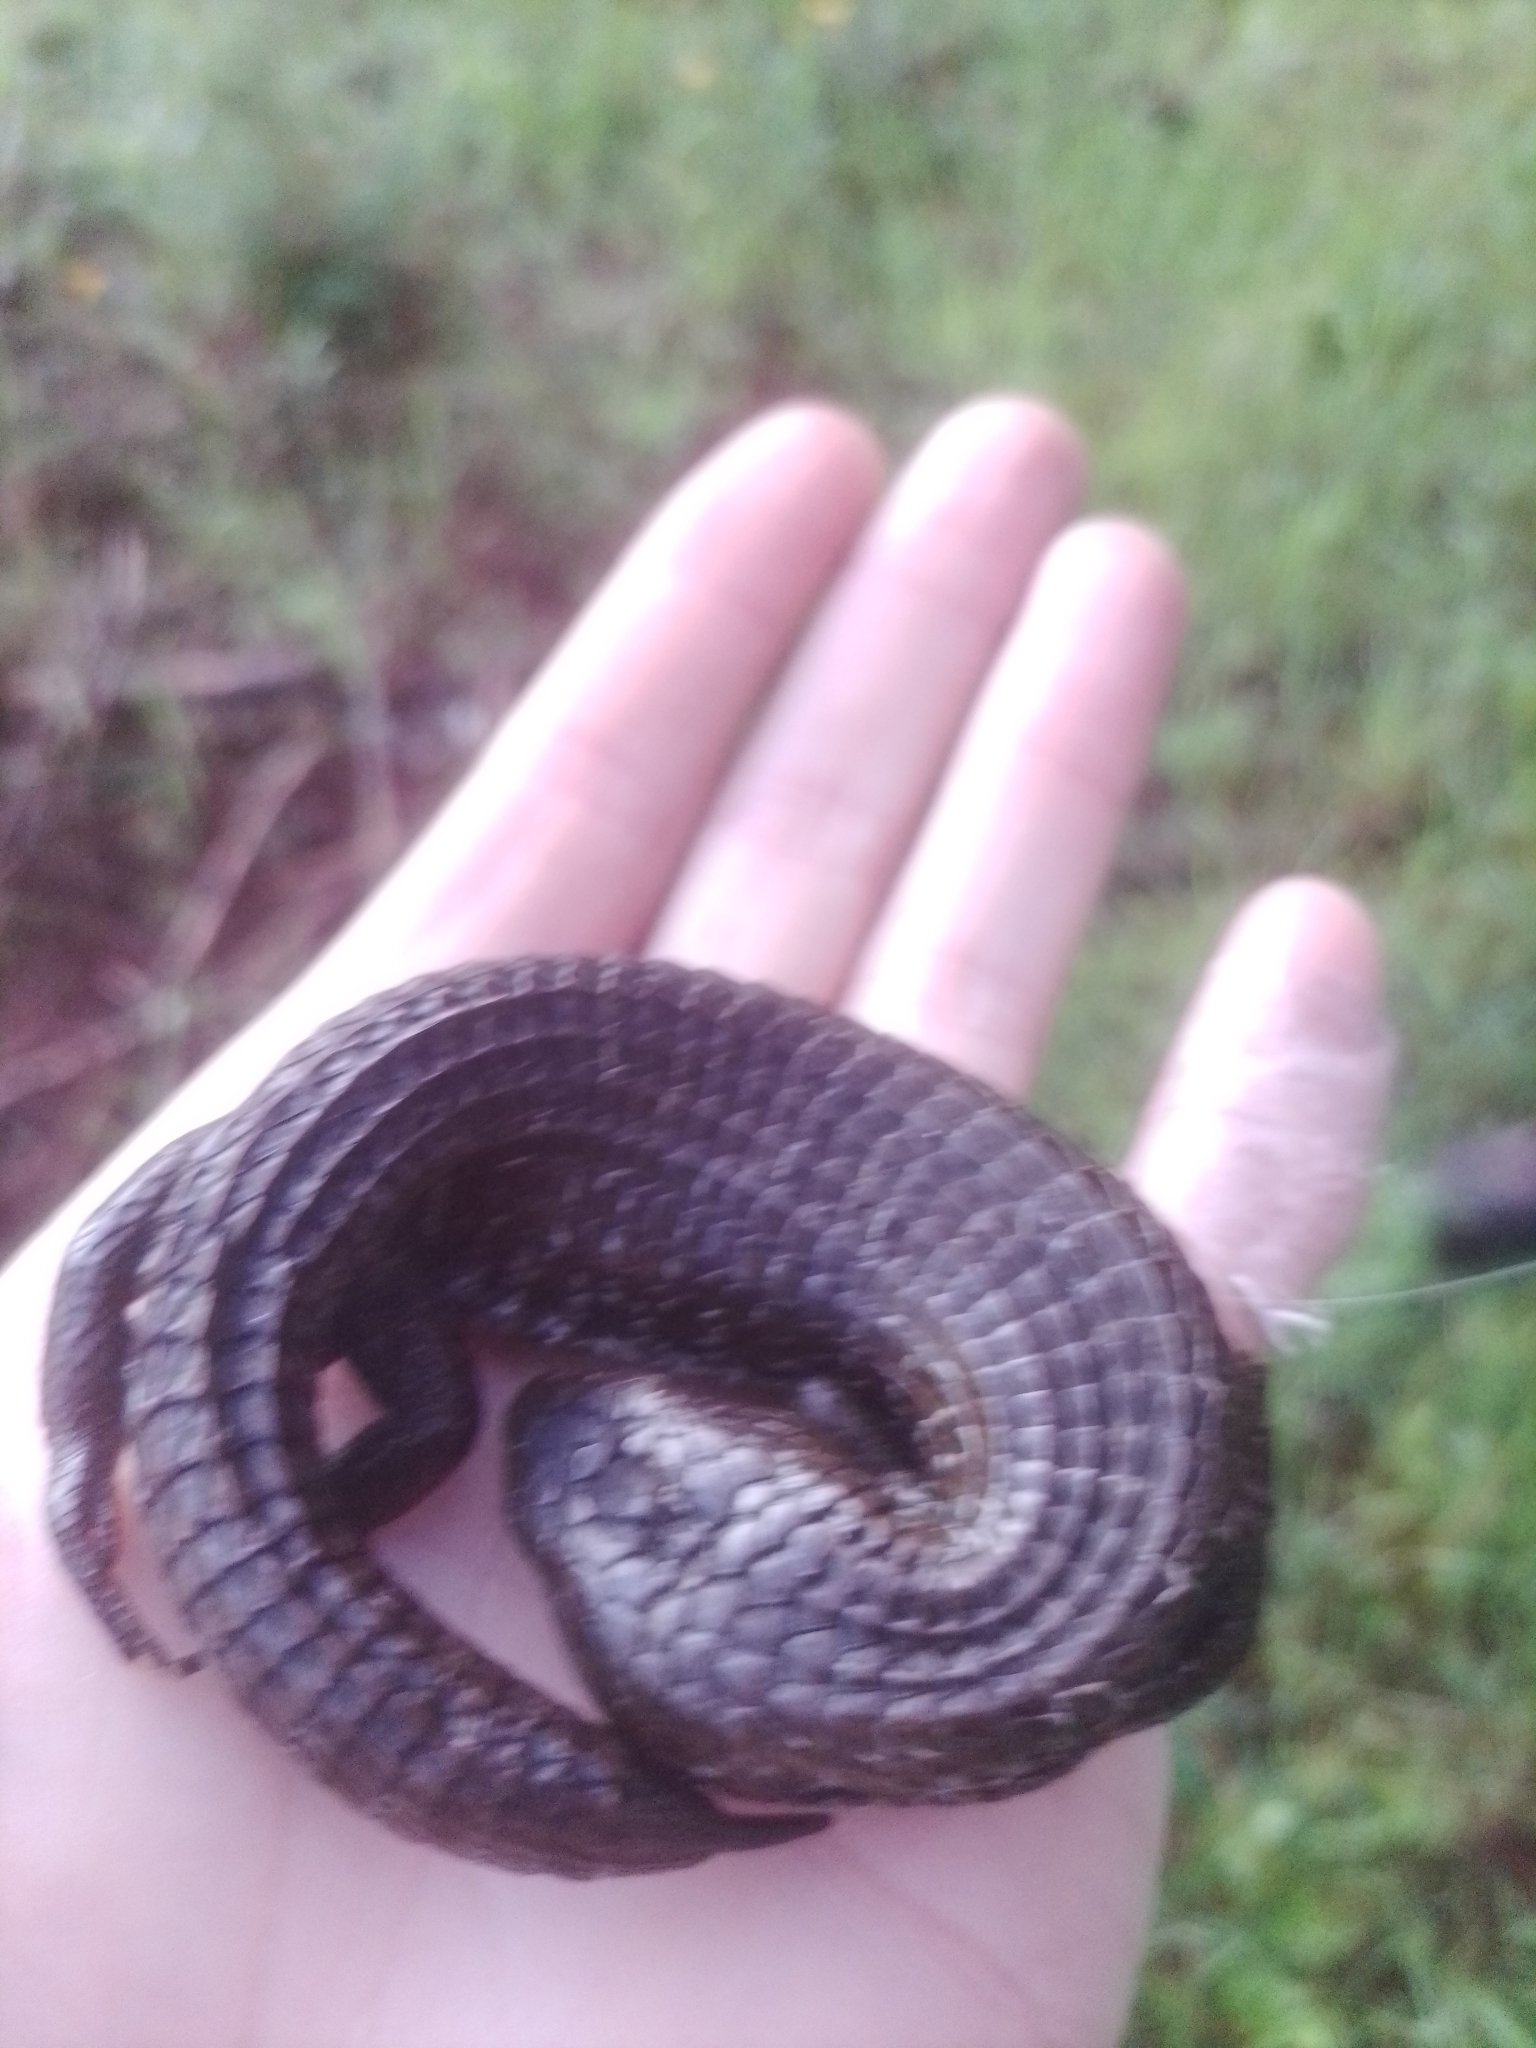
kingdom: Animalia
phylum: Chordata
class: Squamata
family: Anguidae
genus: Barisia
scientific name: Barisia imbricata
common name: Imbricate alligator lizard
